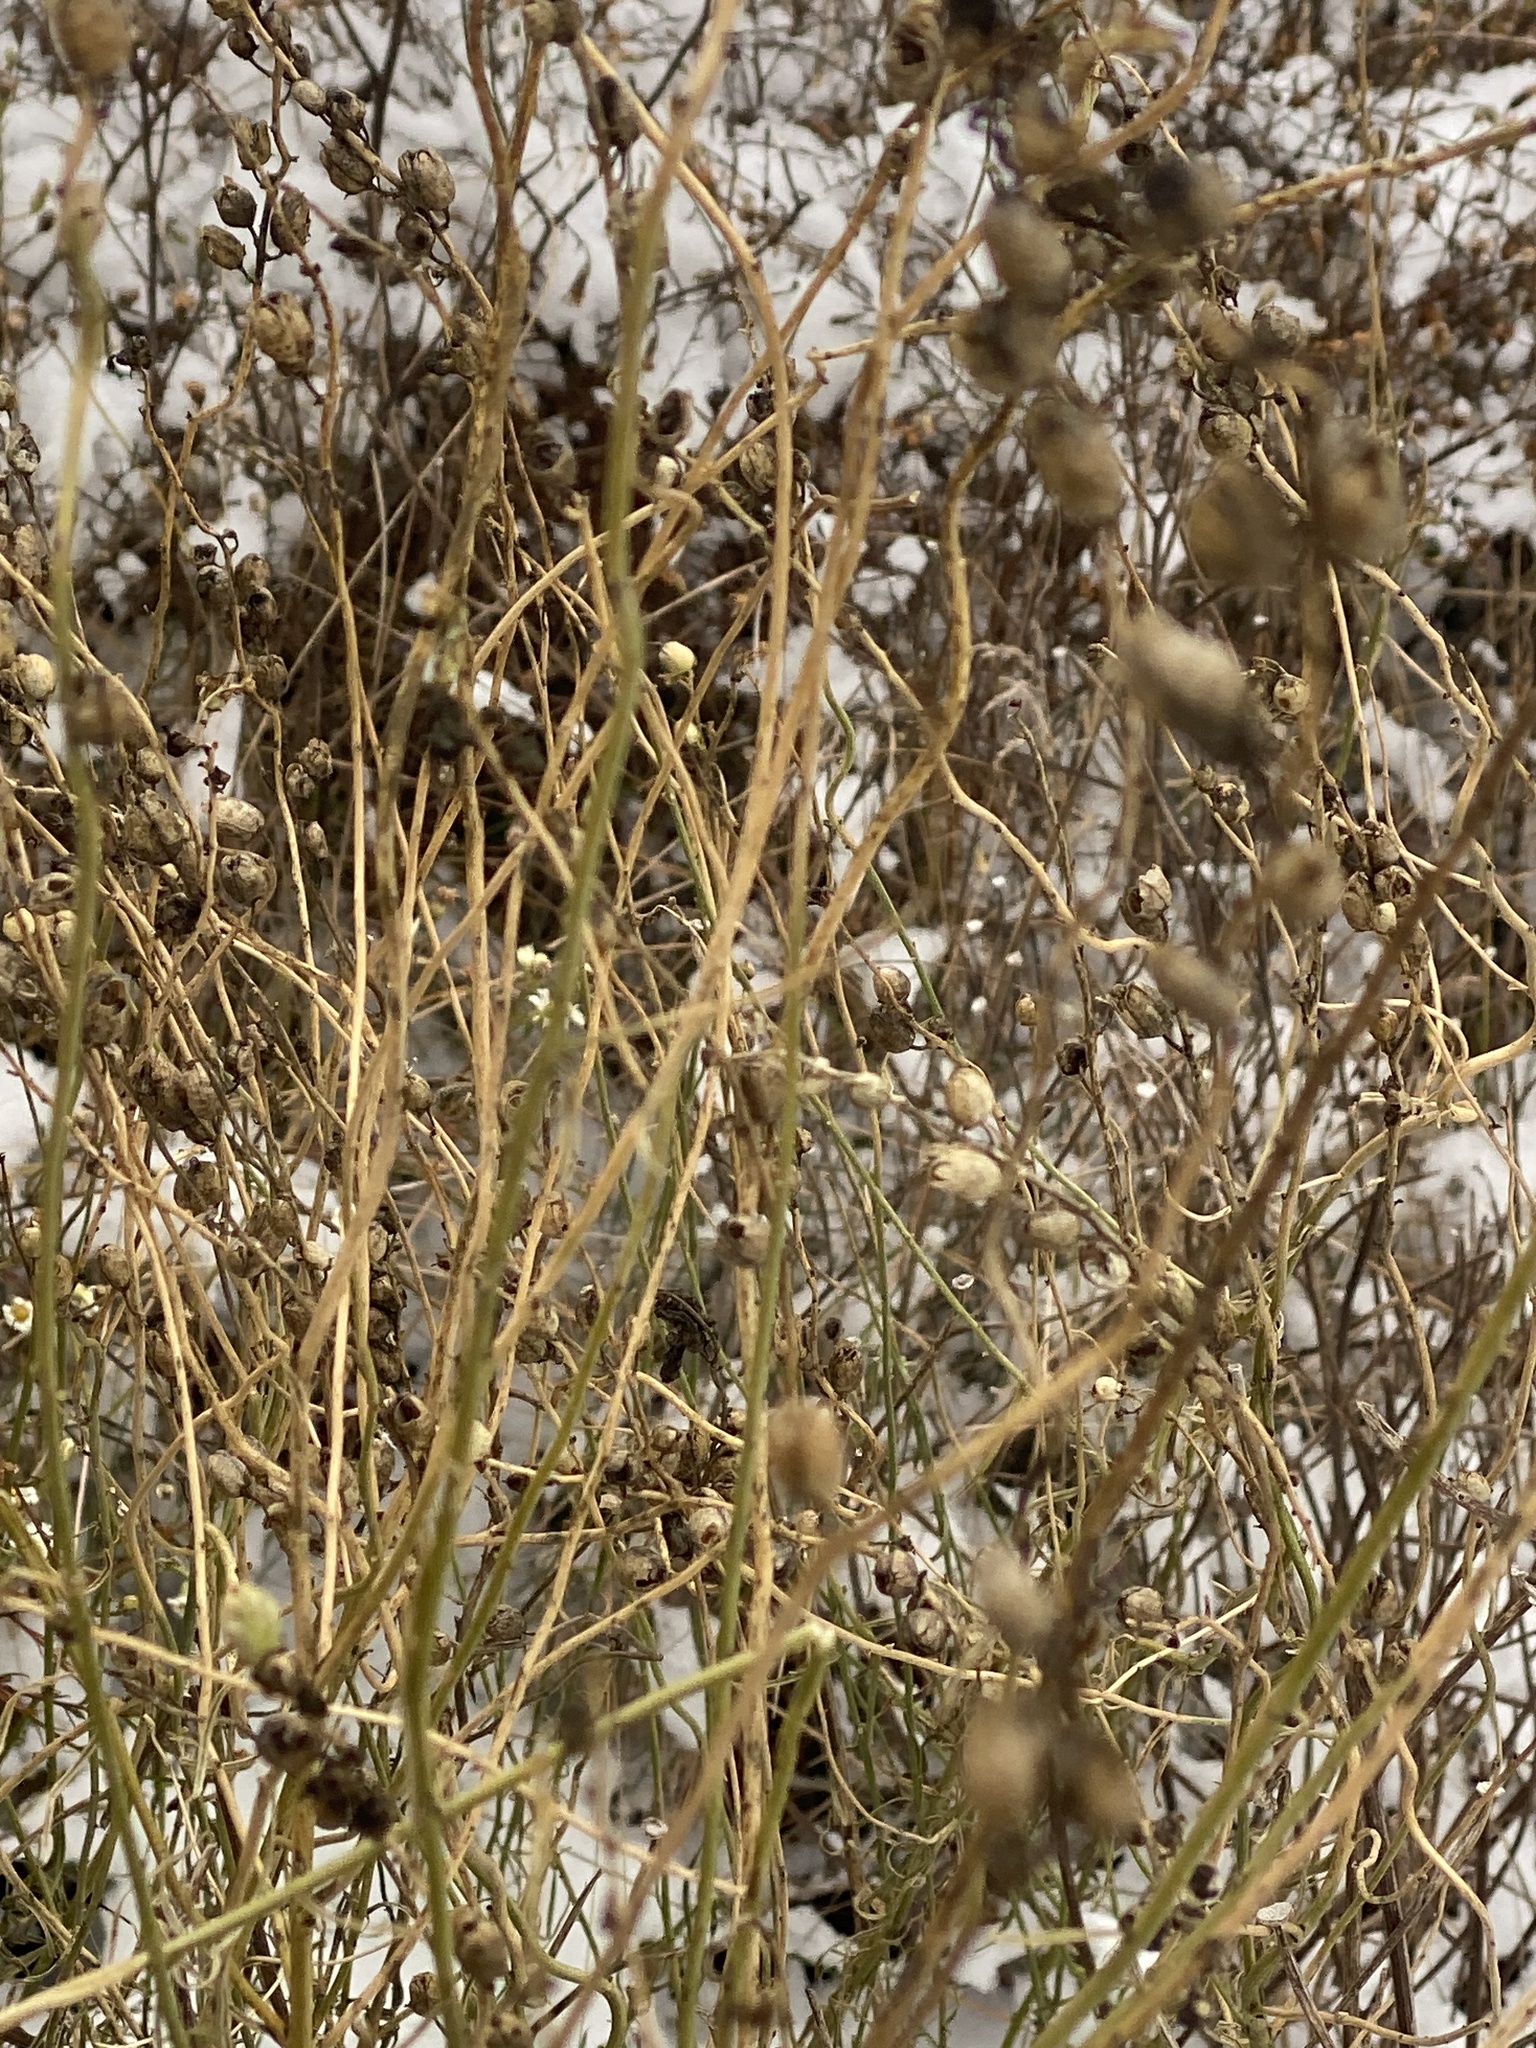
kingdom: Plantae
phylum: Tracheophyta
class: Magnoliopsida
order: Lamiales
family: Plantaginaceae
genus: Linaria
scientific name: Linaria vulgaris
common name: Butter and eggs
